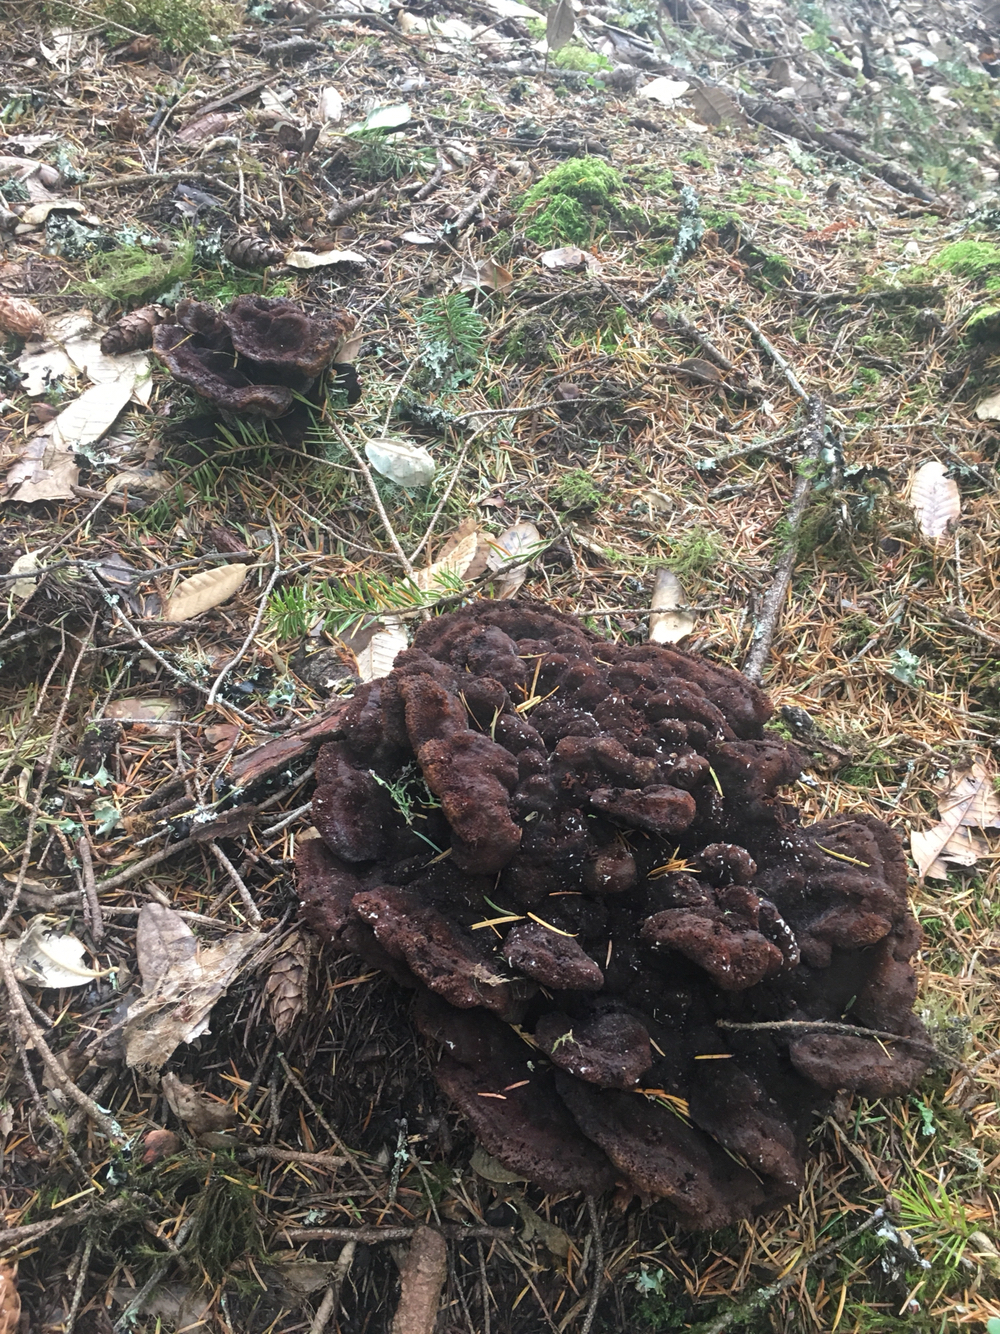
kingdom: Fungi
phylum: Basidiomycota
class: Agaricomycetes
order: Polyporales
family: Laetiporaceae
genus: Phaeolus
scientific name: Phaeolus schweinitzii
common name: Dyer's mazegill
